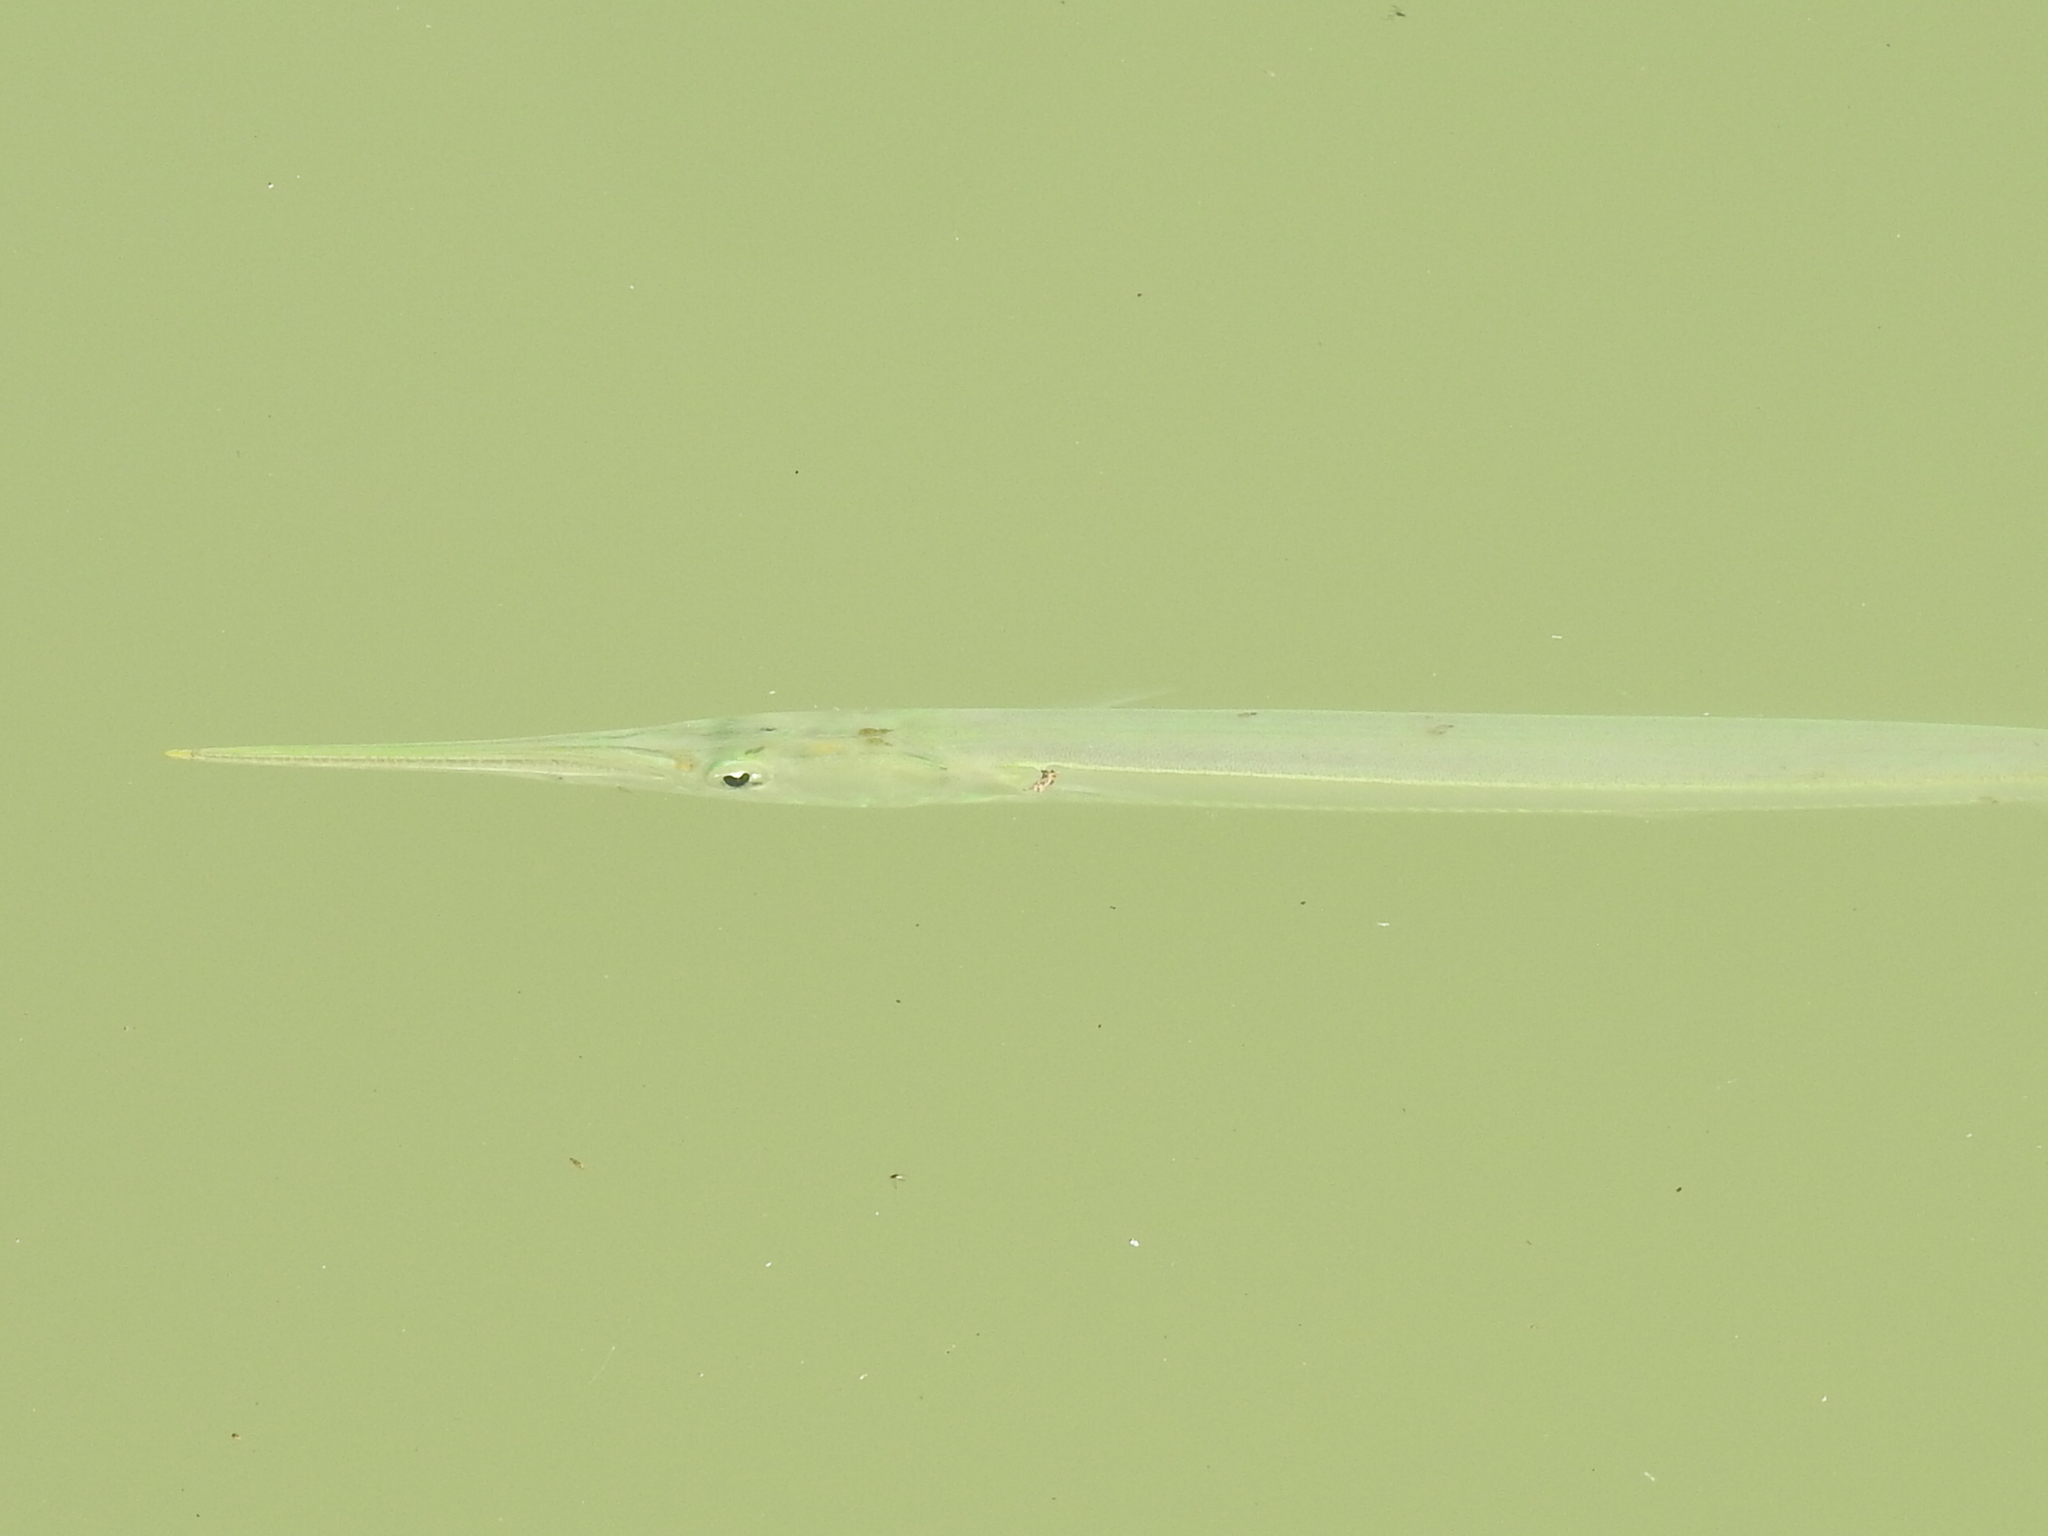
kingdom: Animalia
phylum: Chordata
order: Beloniformes
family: Belonidae
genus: Strongylura
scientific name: Strongylura marina
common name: Atlantic needlefish
